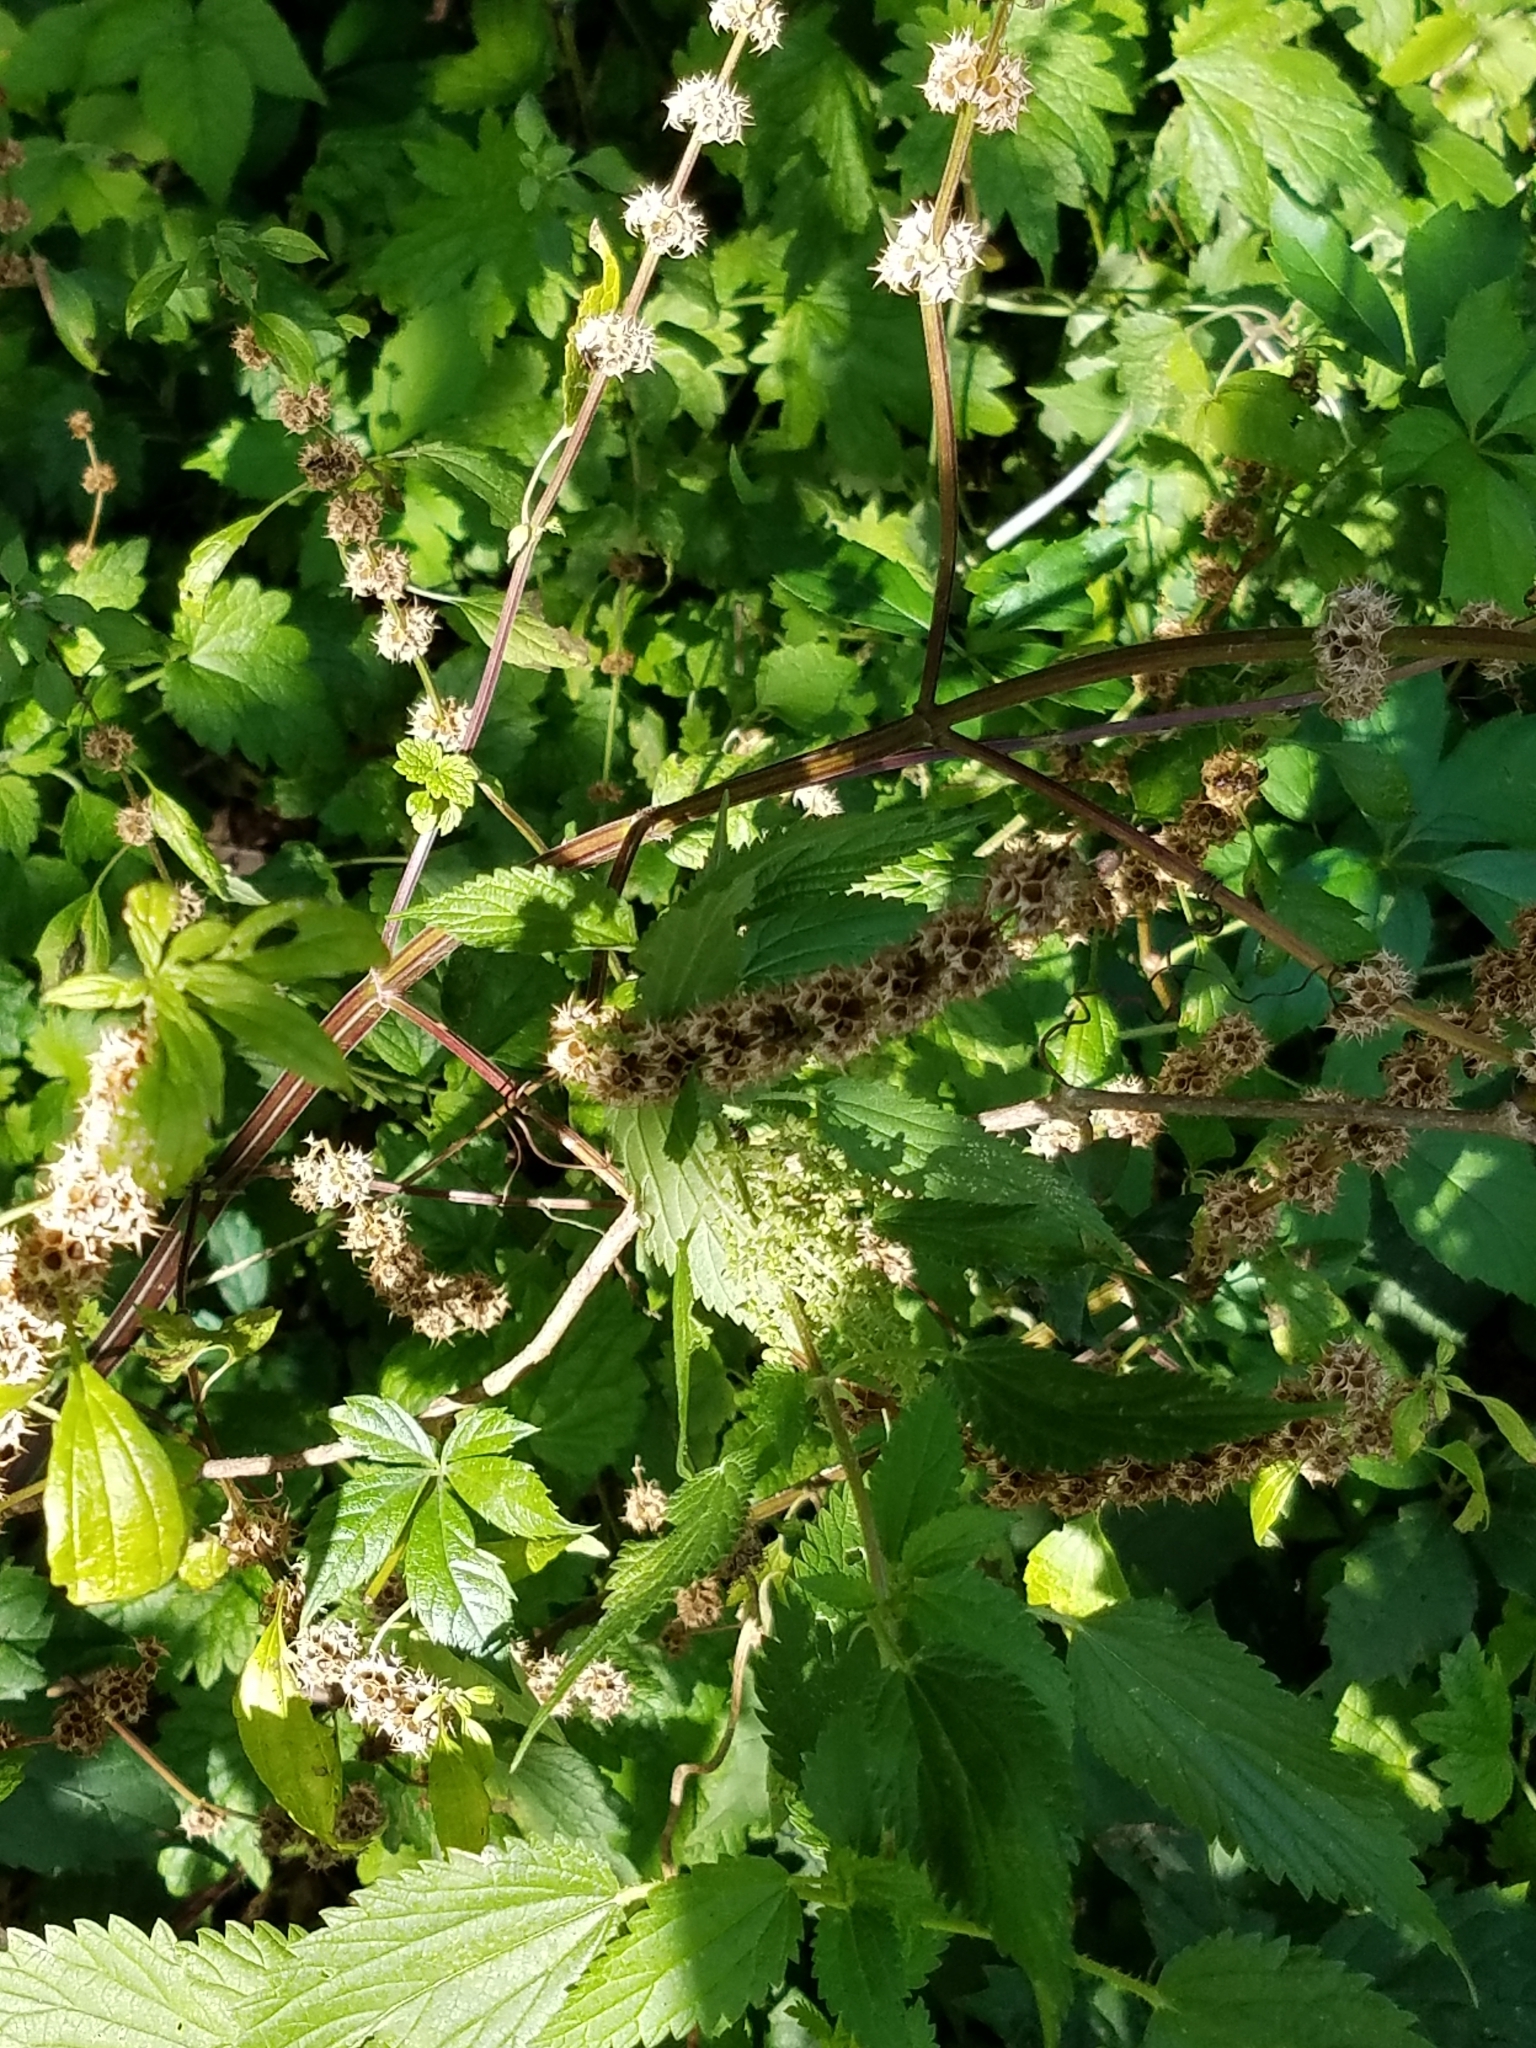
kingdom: Plantae
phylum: Tracheophyta
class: Magnoliopsida
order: Lamiales
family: Lamiaceae
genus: Leonurus
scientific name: Leonurus cardiaca
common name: Motherwort
